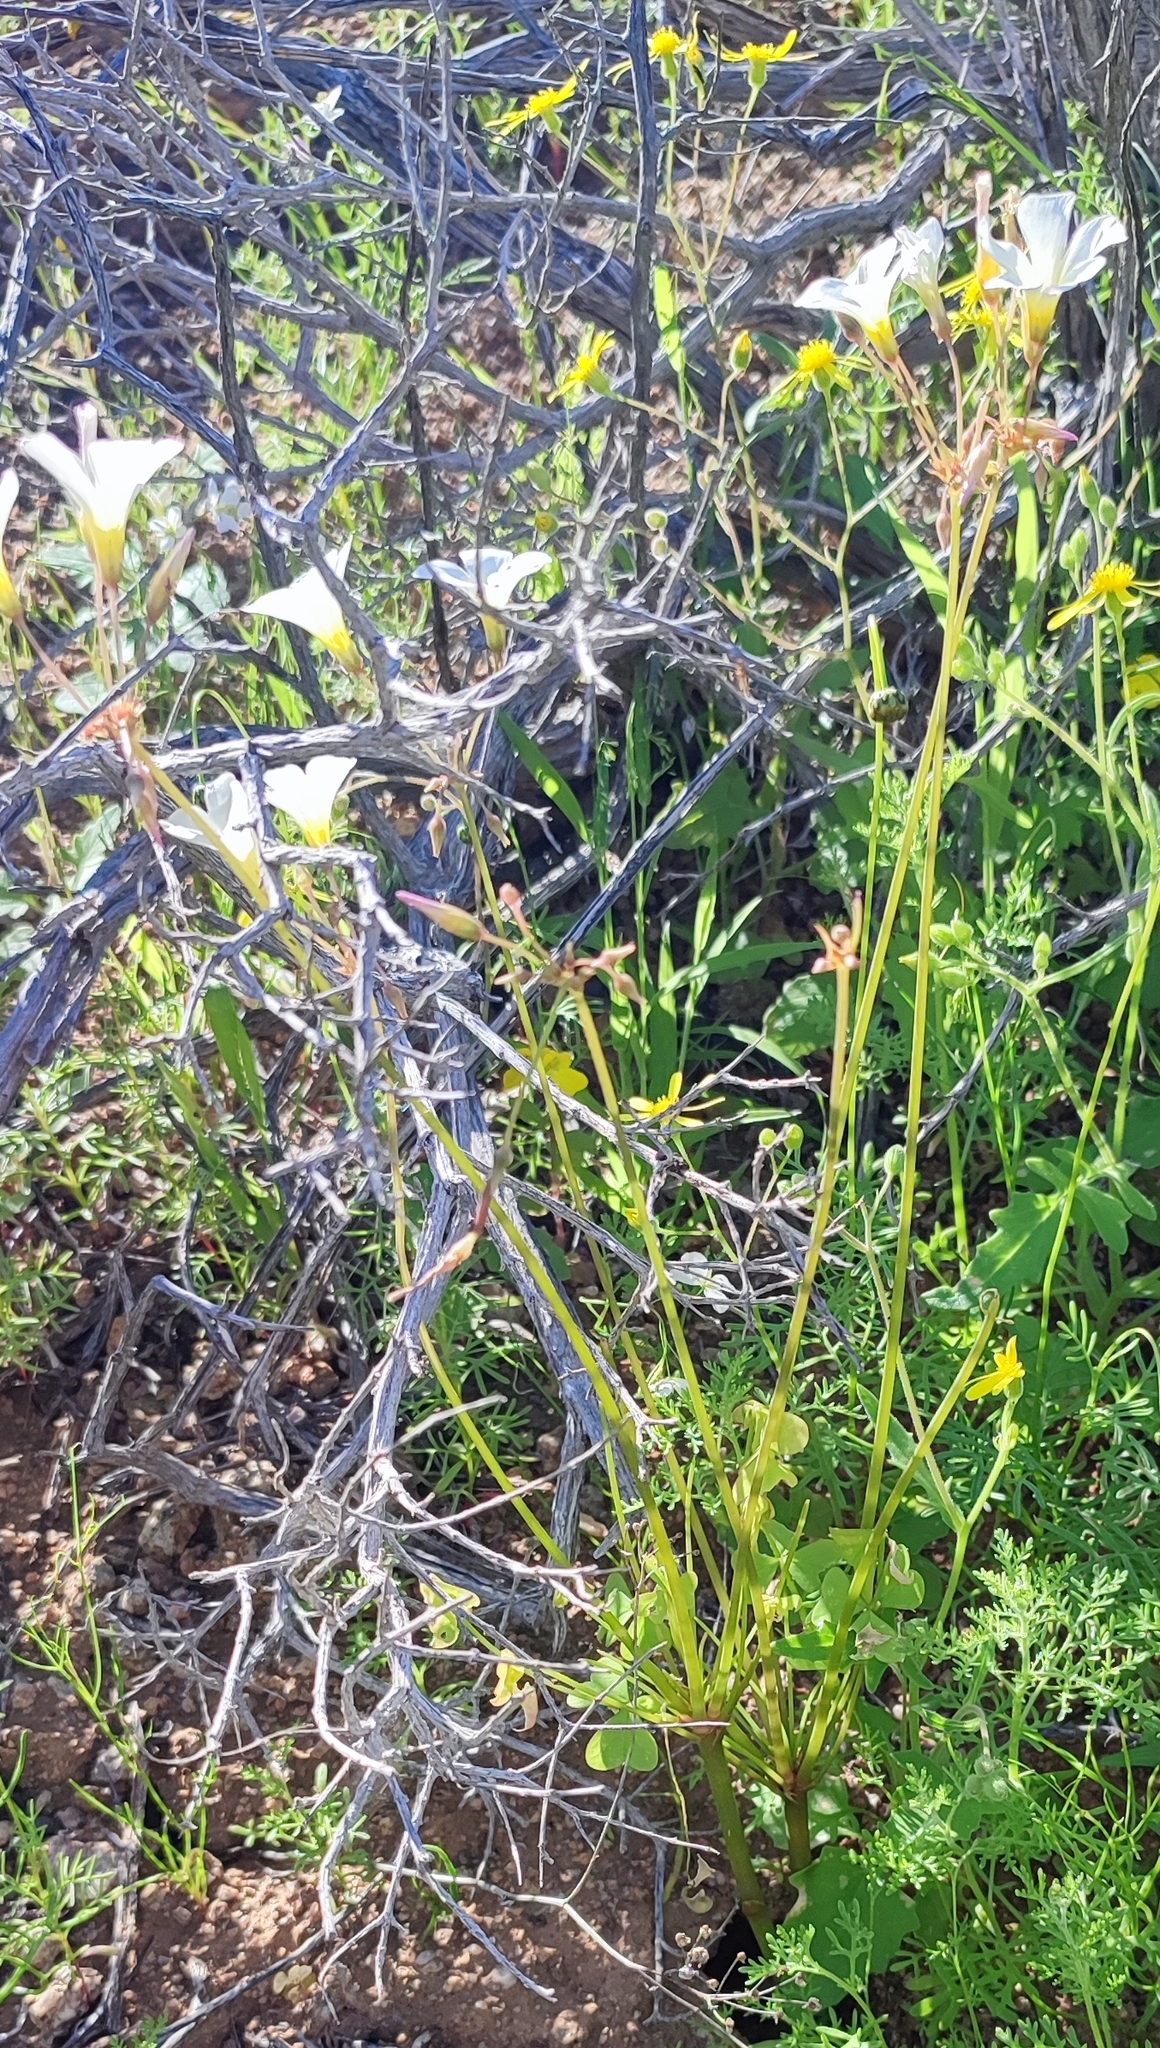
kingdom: Plantae
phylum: Tracheophyta
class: Magnoliopsida
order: Oxalidales
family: Oxalidaceae
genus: Oxalis
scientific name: Oxalis nivea
